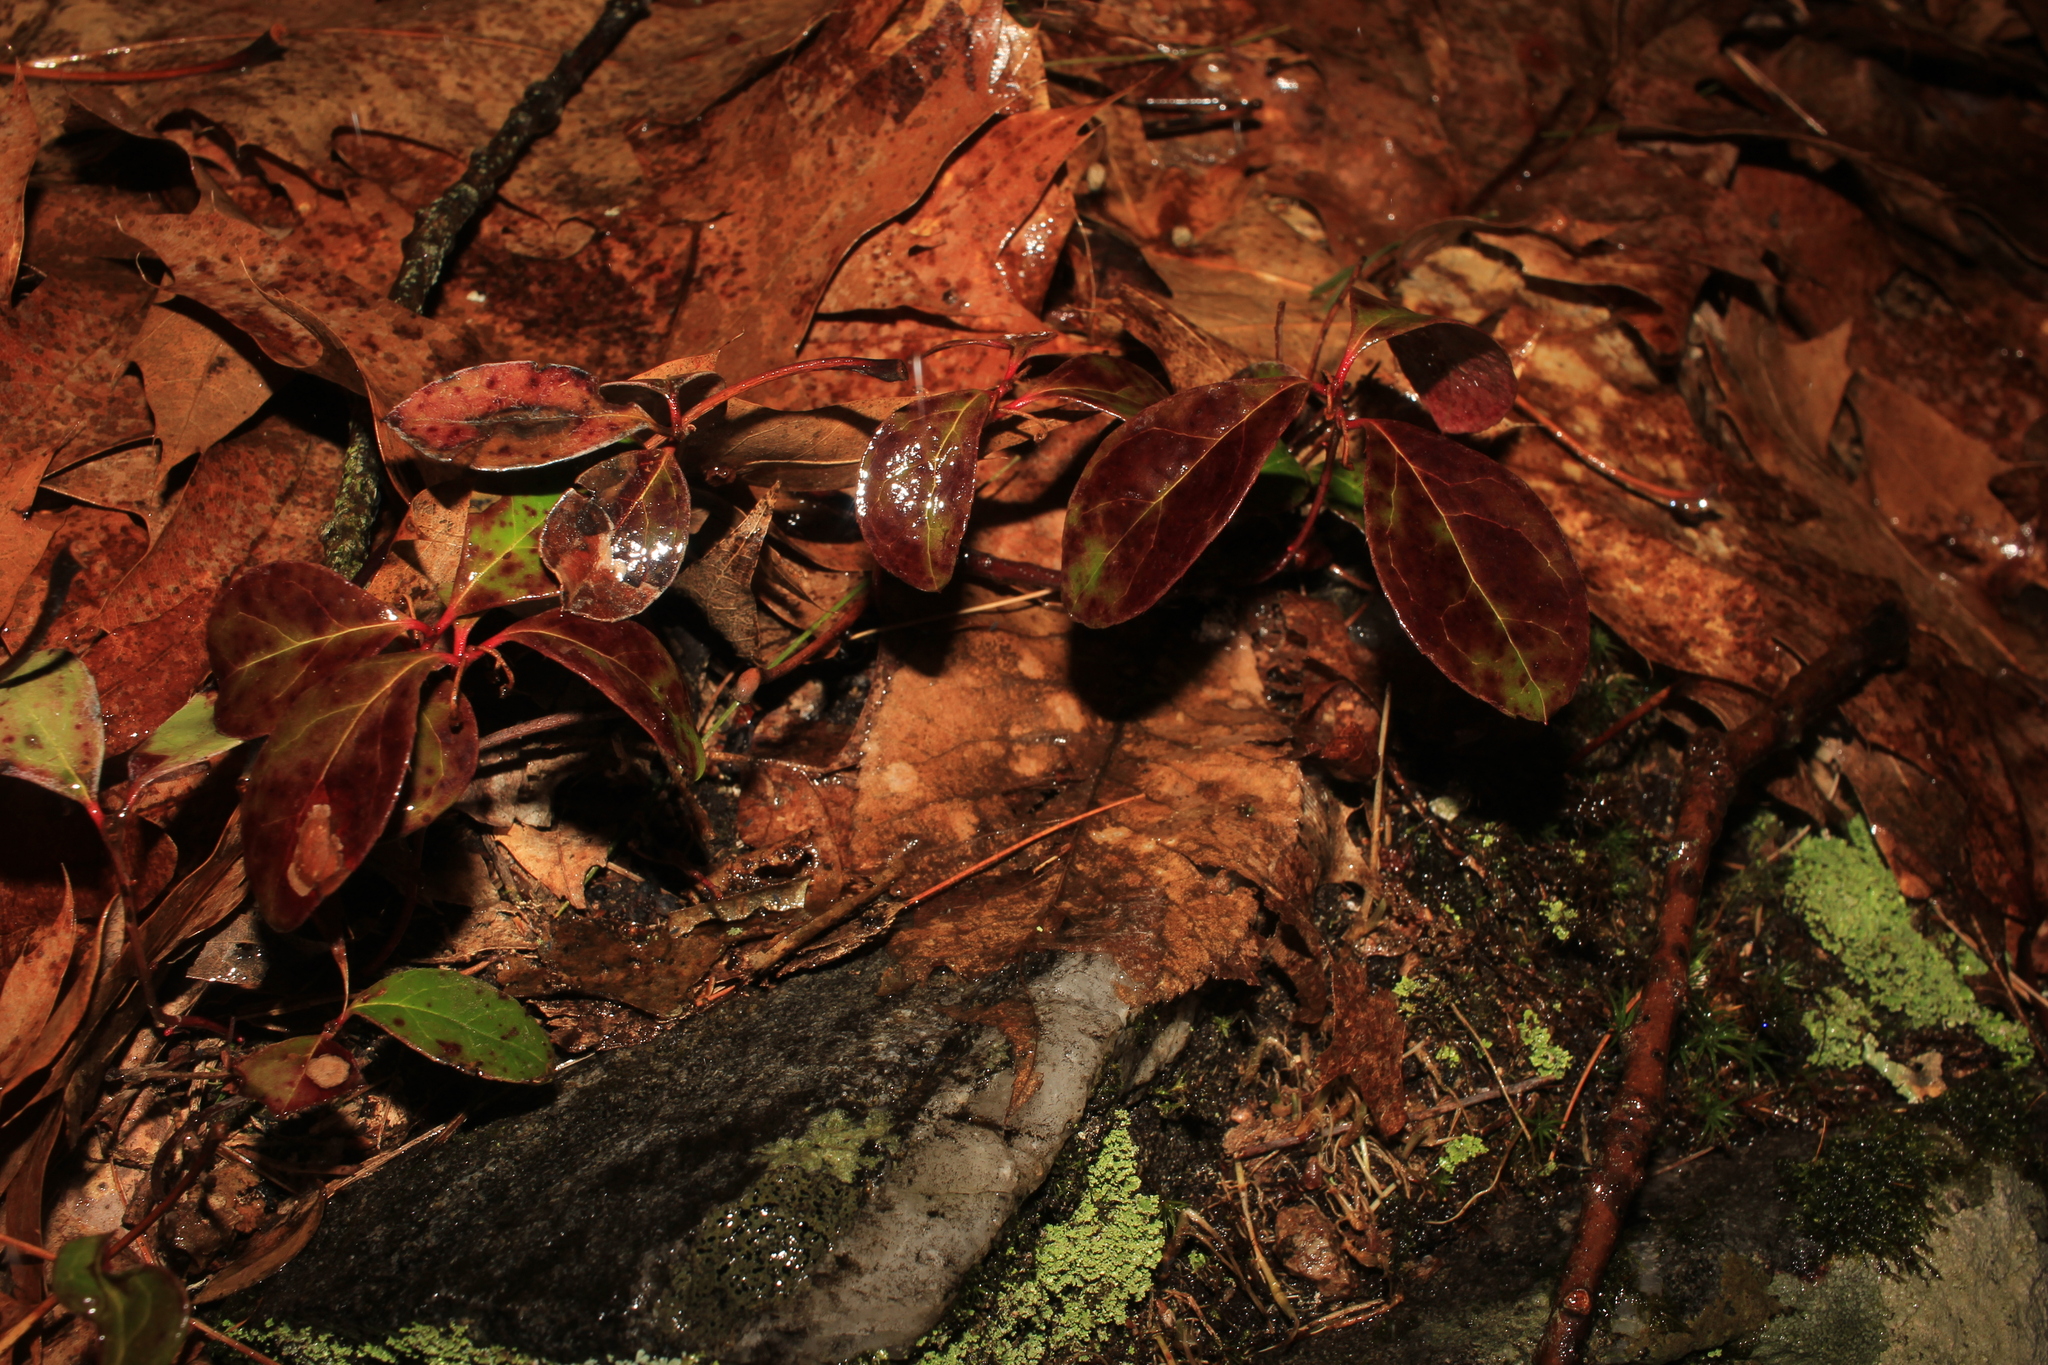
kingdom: Plantae
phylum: Tracheophyta
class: Magnoliopsida
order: Ericales
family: Ericaceae
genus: Gaultheria
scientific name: Gaultheria procumbens
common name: Checkerberry
